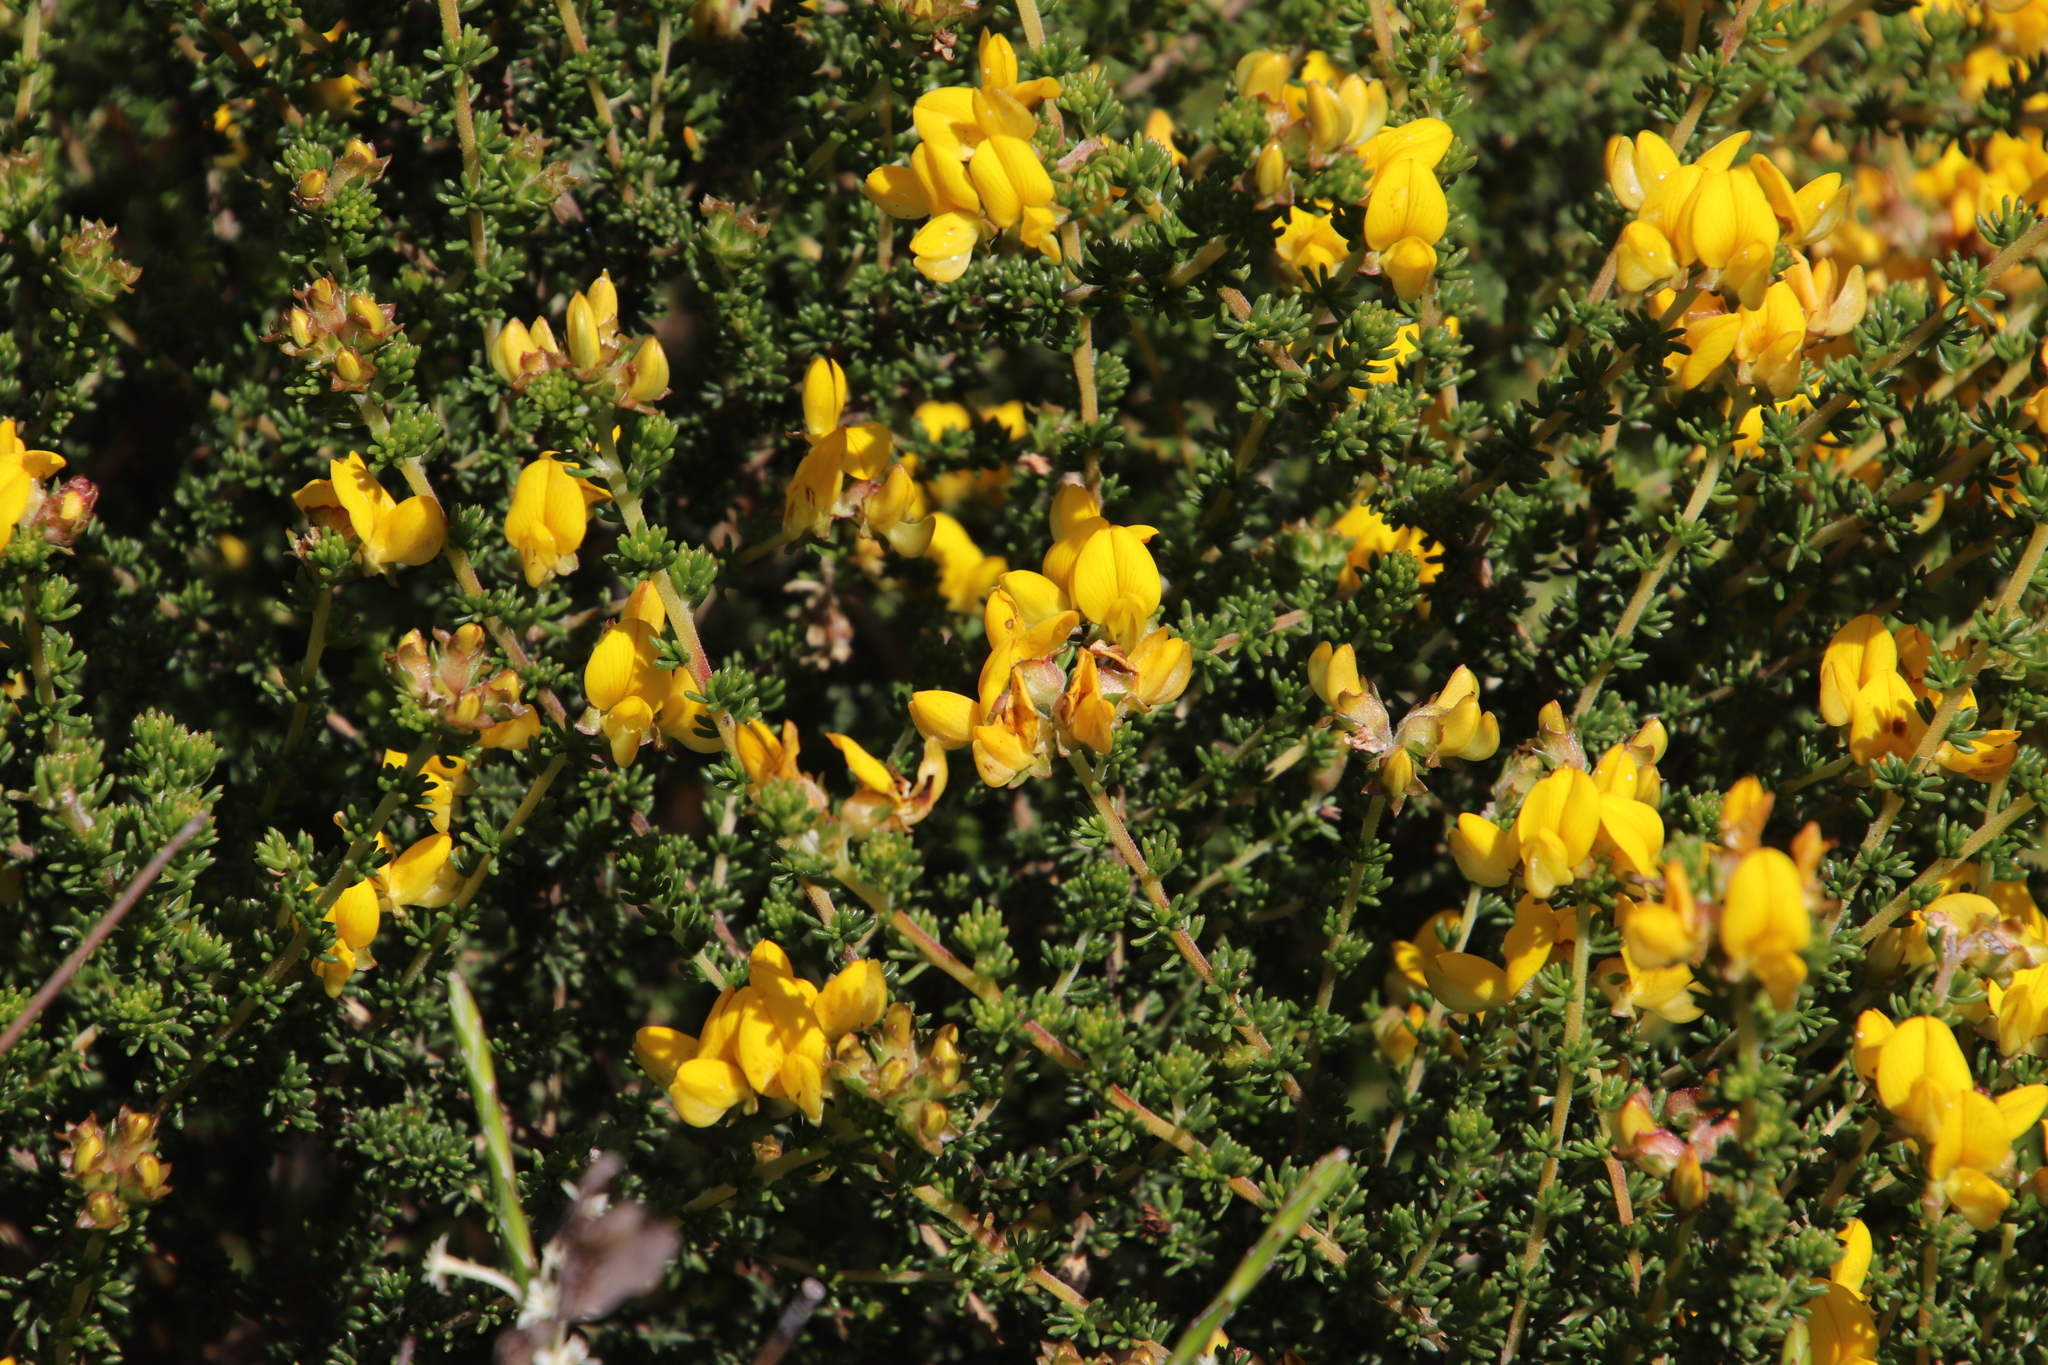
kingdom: Plantae
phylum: Tracheophyta
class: Magnoliopsida
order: Fabales
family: Fabaceae
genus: Aspalathus
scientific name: Aspalathus carnosa
